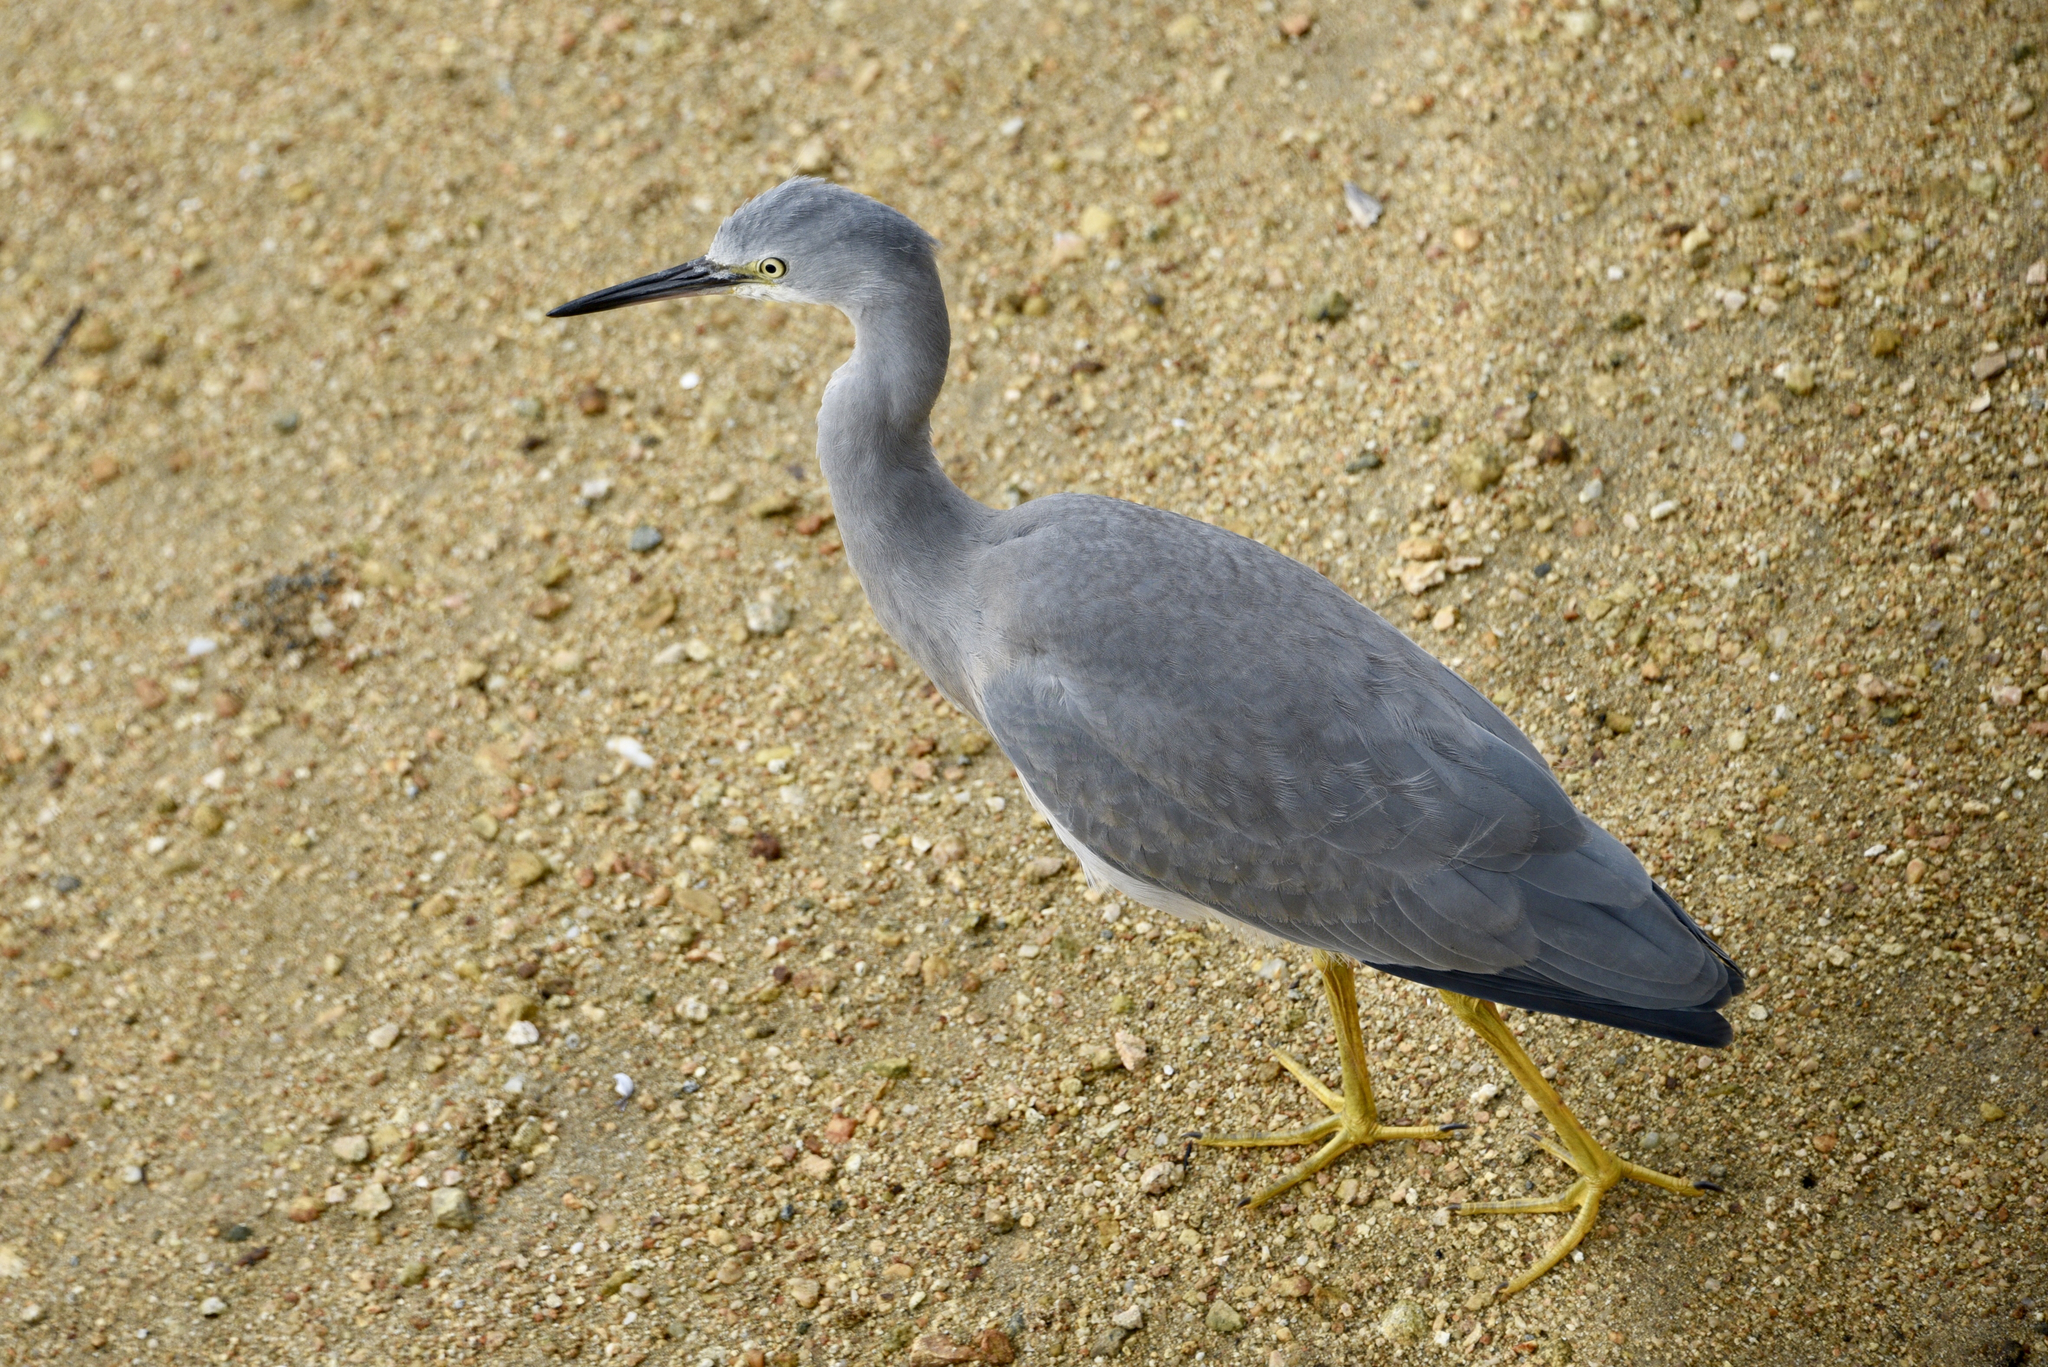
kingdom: Animalia
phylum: Chordata
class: Aves
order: Pelecaniformes
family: Ardeidae
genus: Egretta
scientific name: Egretta novaehollandiae
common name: White-faced heron
